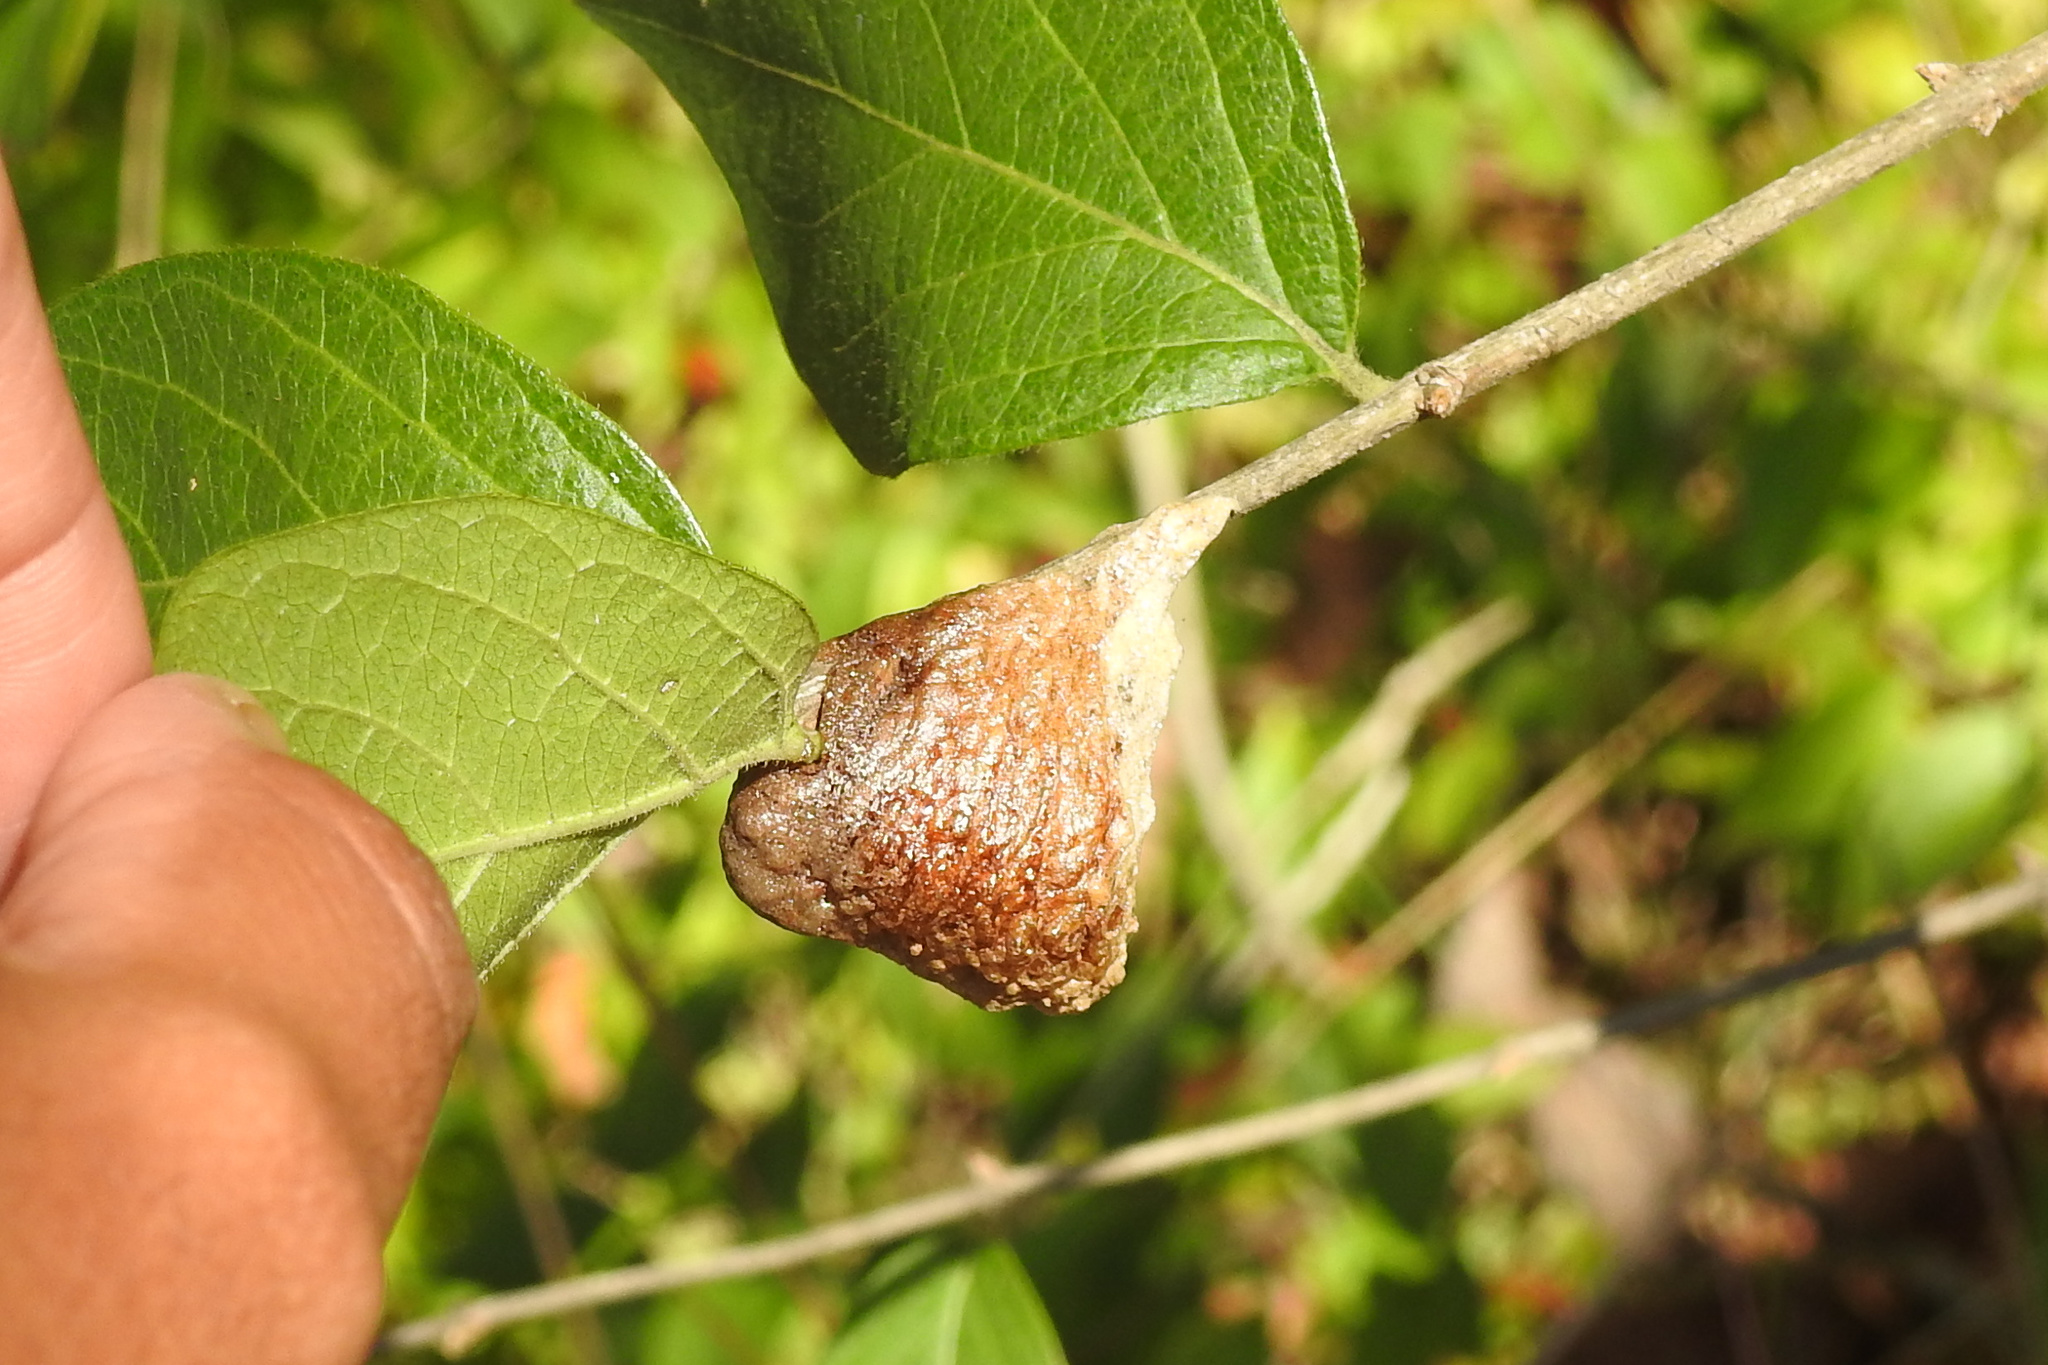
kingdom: Animalia
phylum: Arthropoda
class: Insecta
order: Mantodea
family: Mantidae
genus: Tenodera
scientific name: Tenodera sinensis
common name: Chinese mantis
